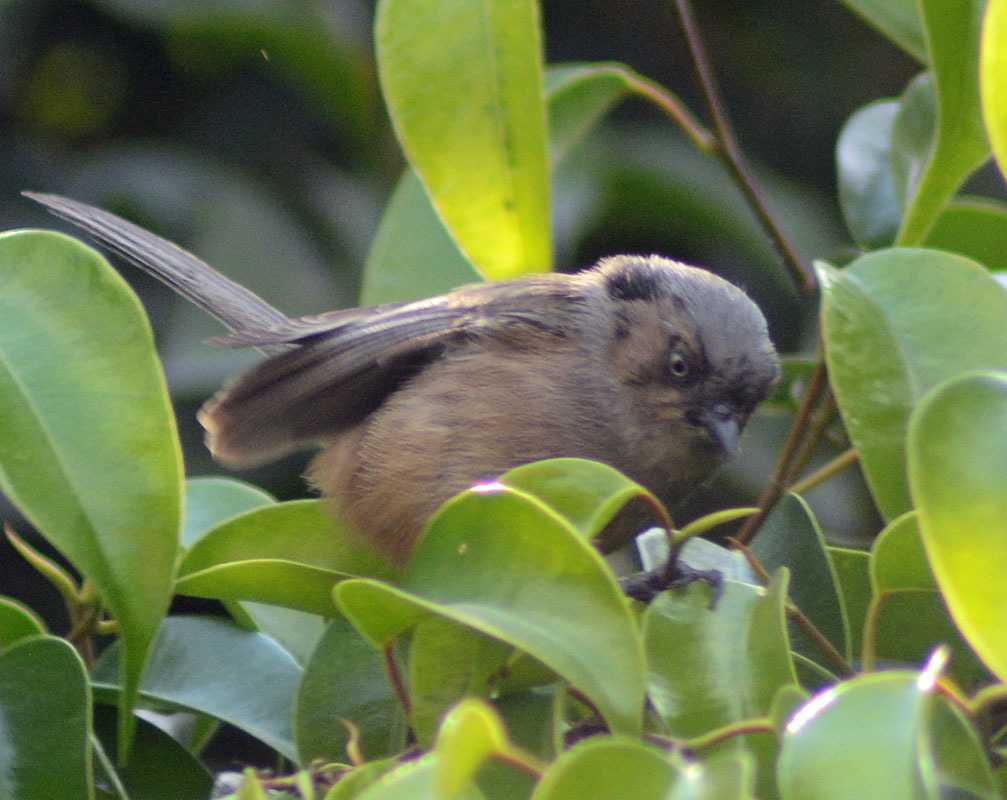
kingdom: Animalia
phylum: Chordata
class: Aves
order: Passeriformes
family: Aegithalidae
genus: Psaltriparus
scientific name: Psaltriparus minimus
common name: American bushtit
